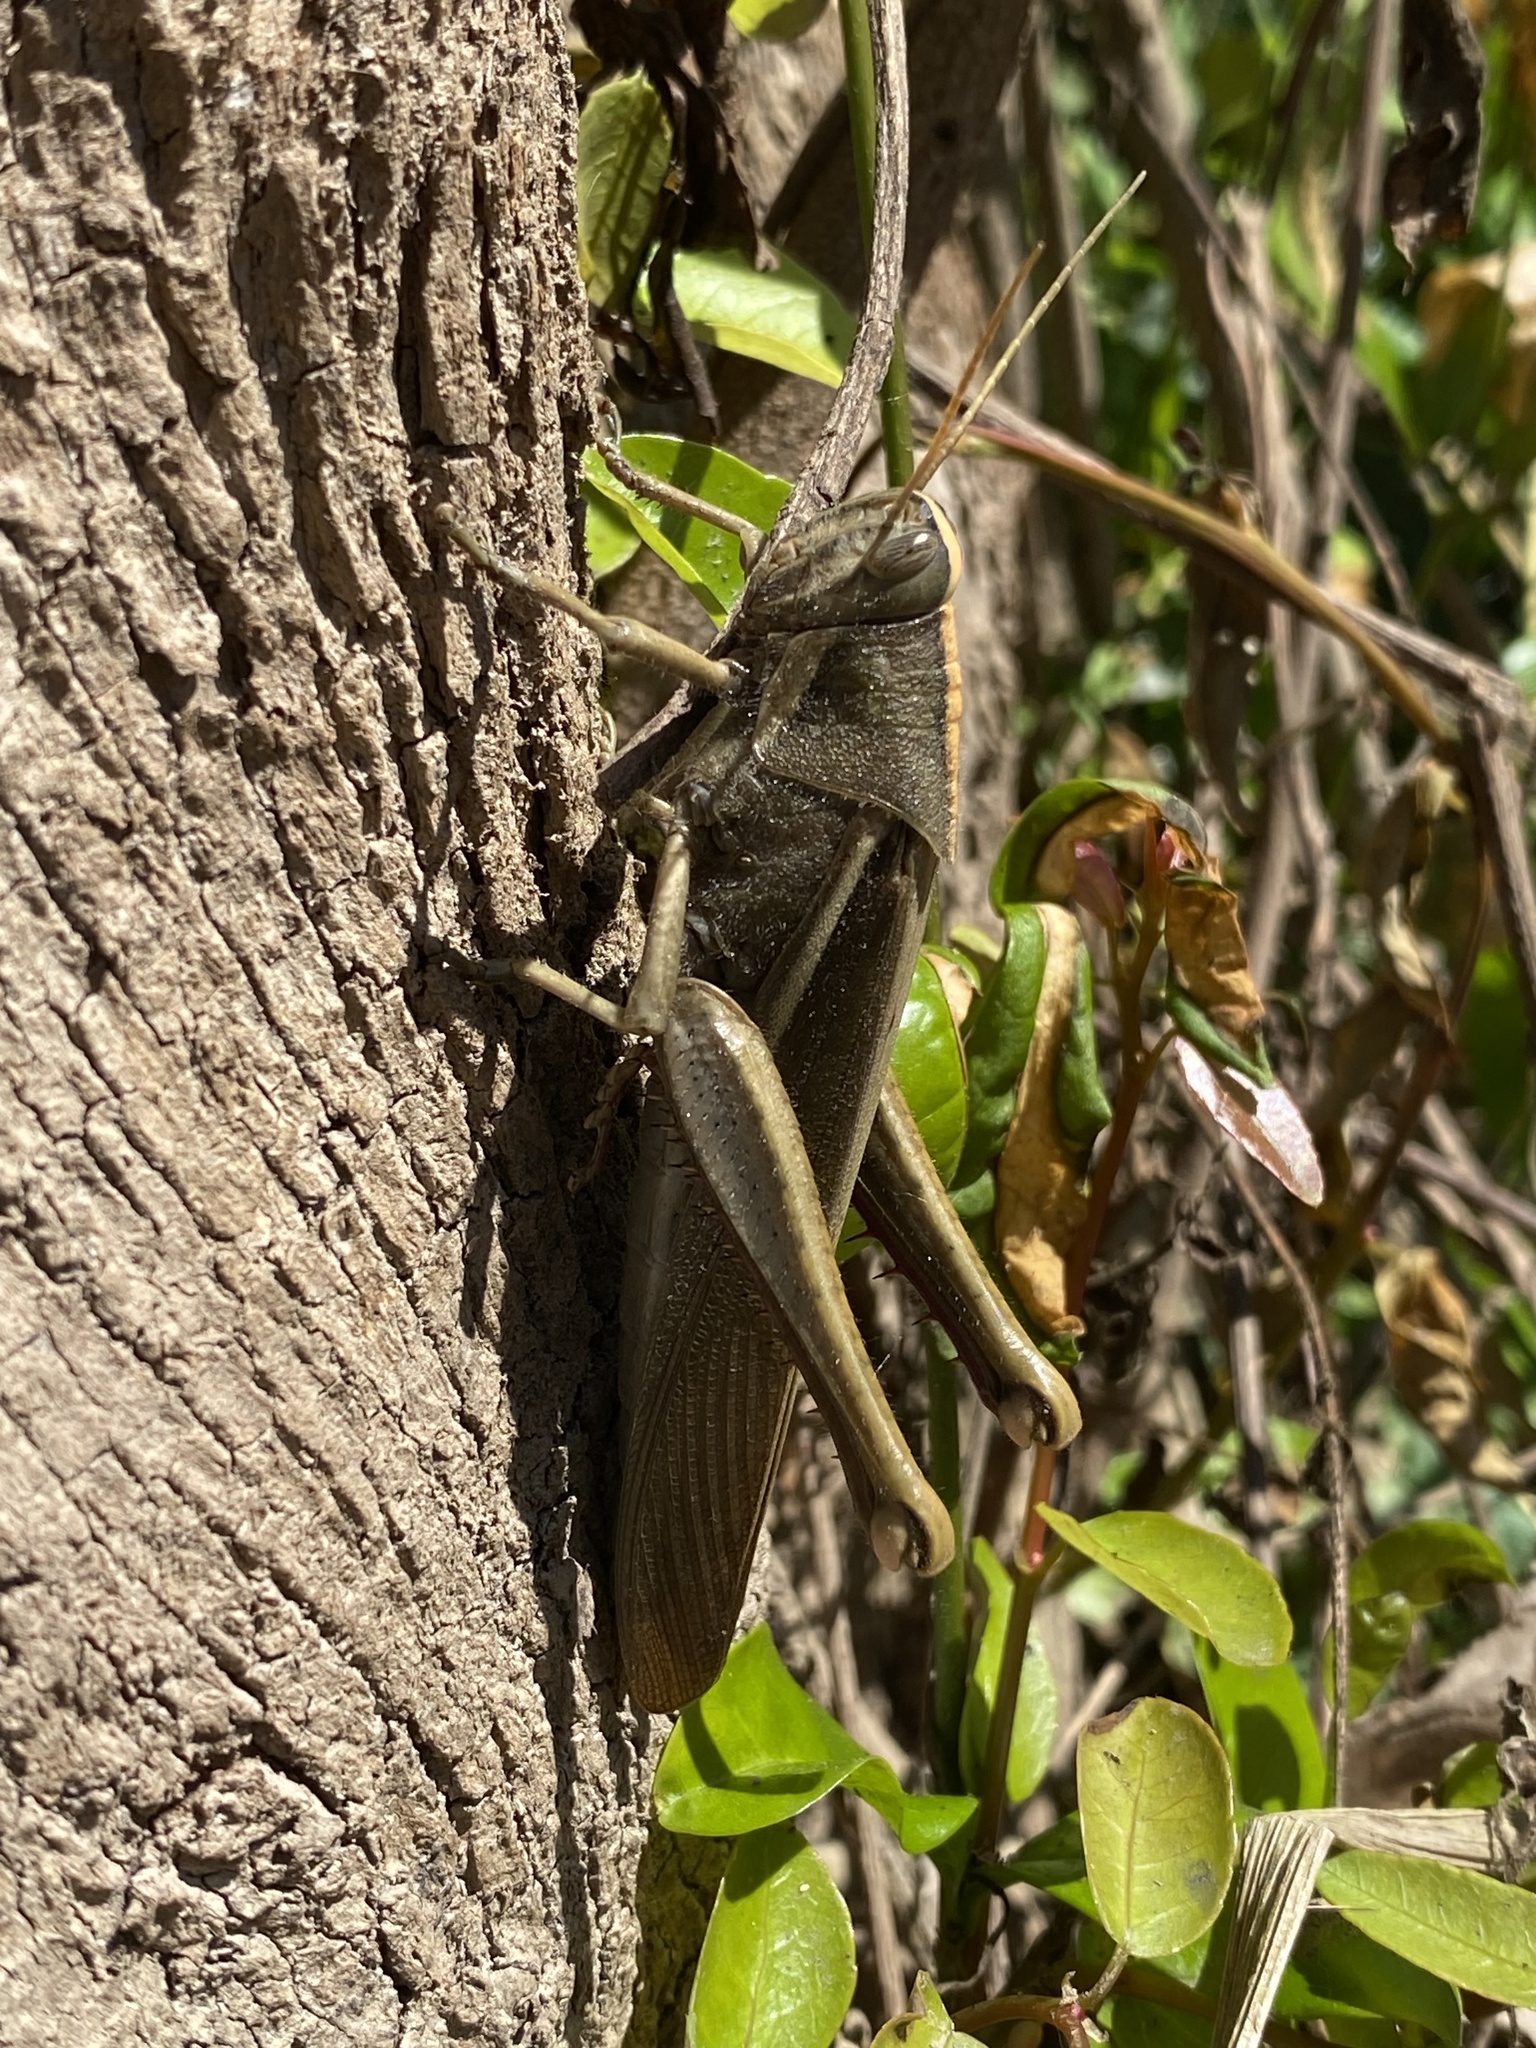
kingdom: Animalia
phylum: Arthropoda
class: Insecta
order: Orthoptera
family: Acrididae
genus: Schistocerca
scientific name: Schistocerca flavofasciata
